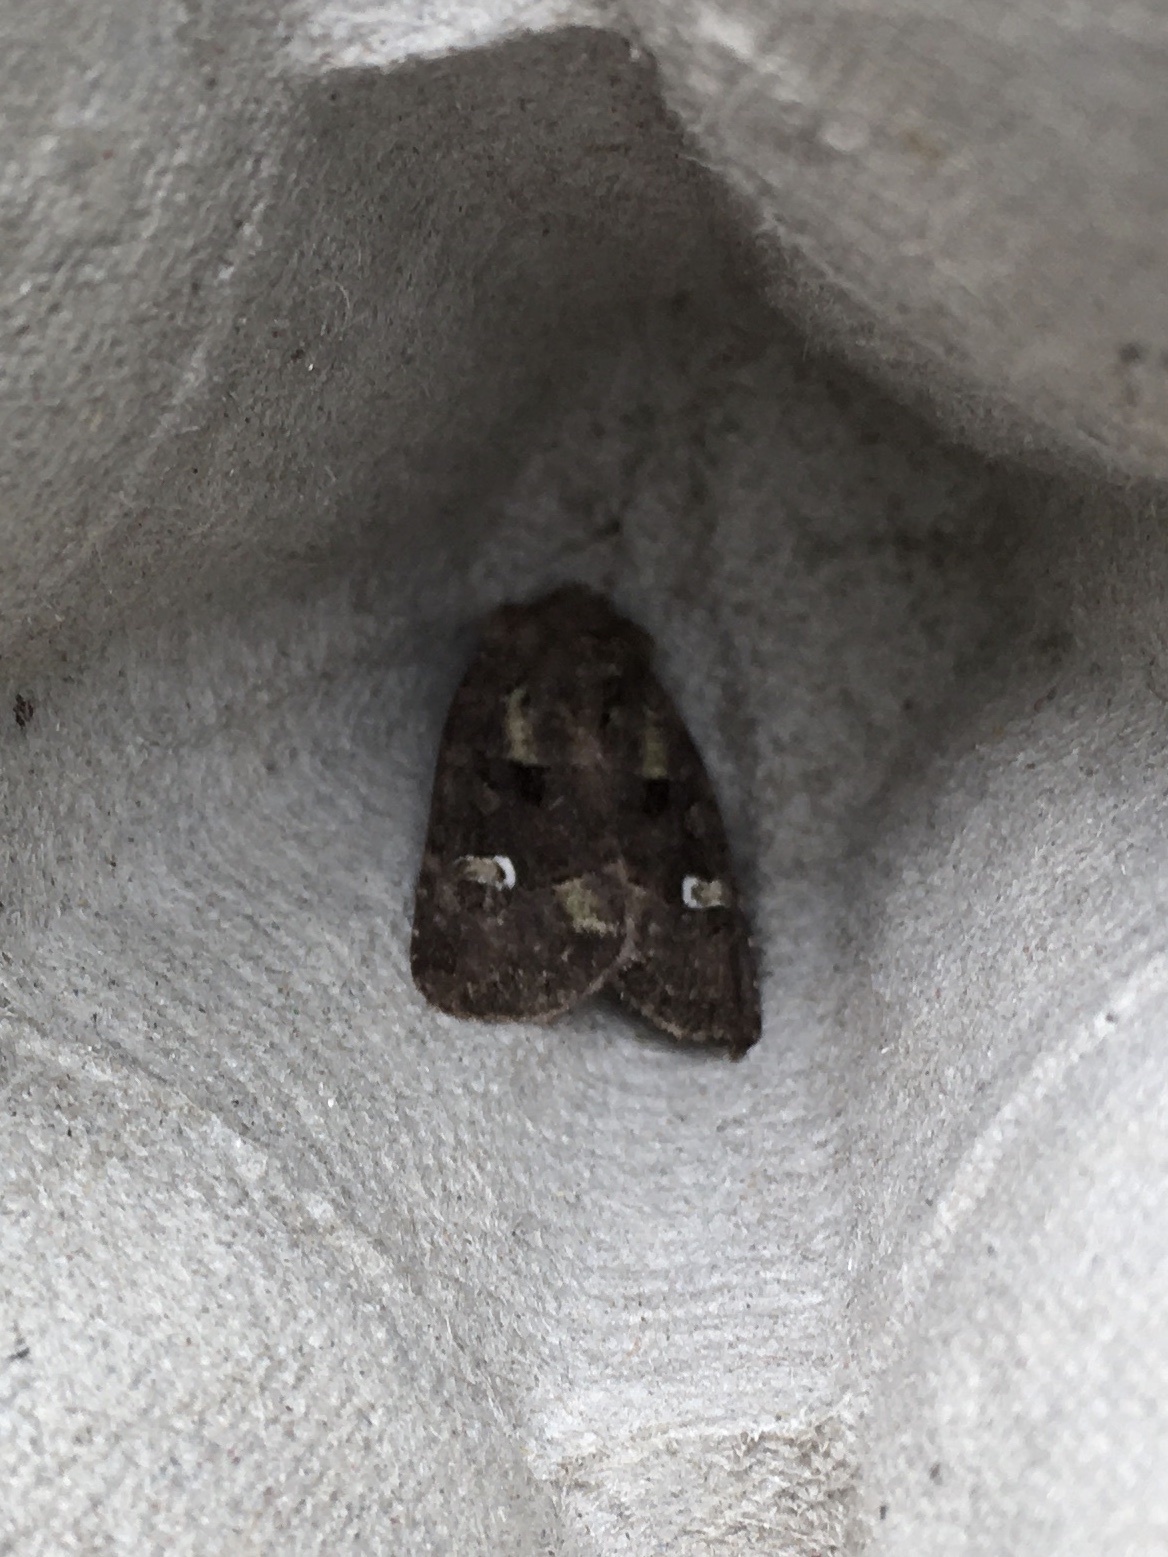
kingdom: Animalia
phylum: Arthropoda
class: Insecta
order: Lepidoptera
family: Noctuidae
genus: Lacinipolia
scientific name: Lacinipolia renigera
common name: Kidney-spotted minor
